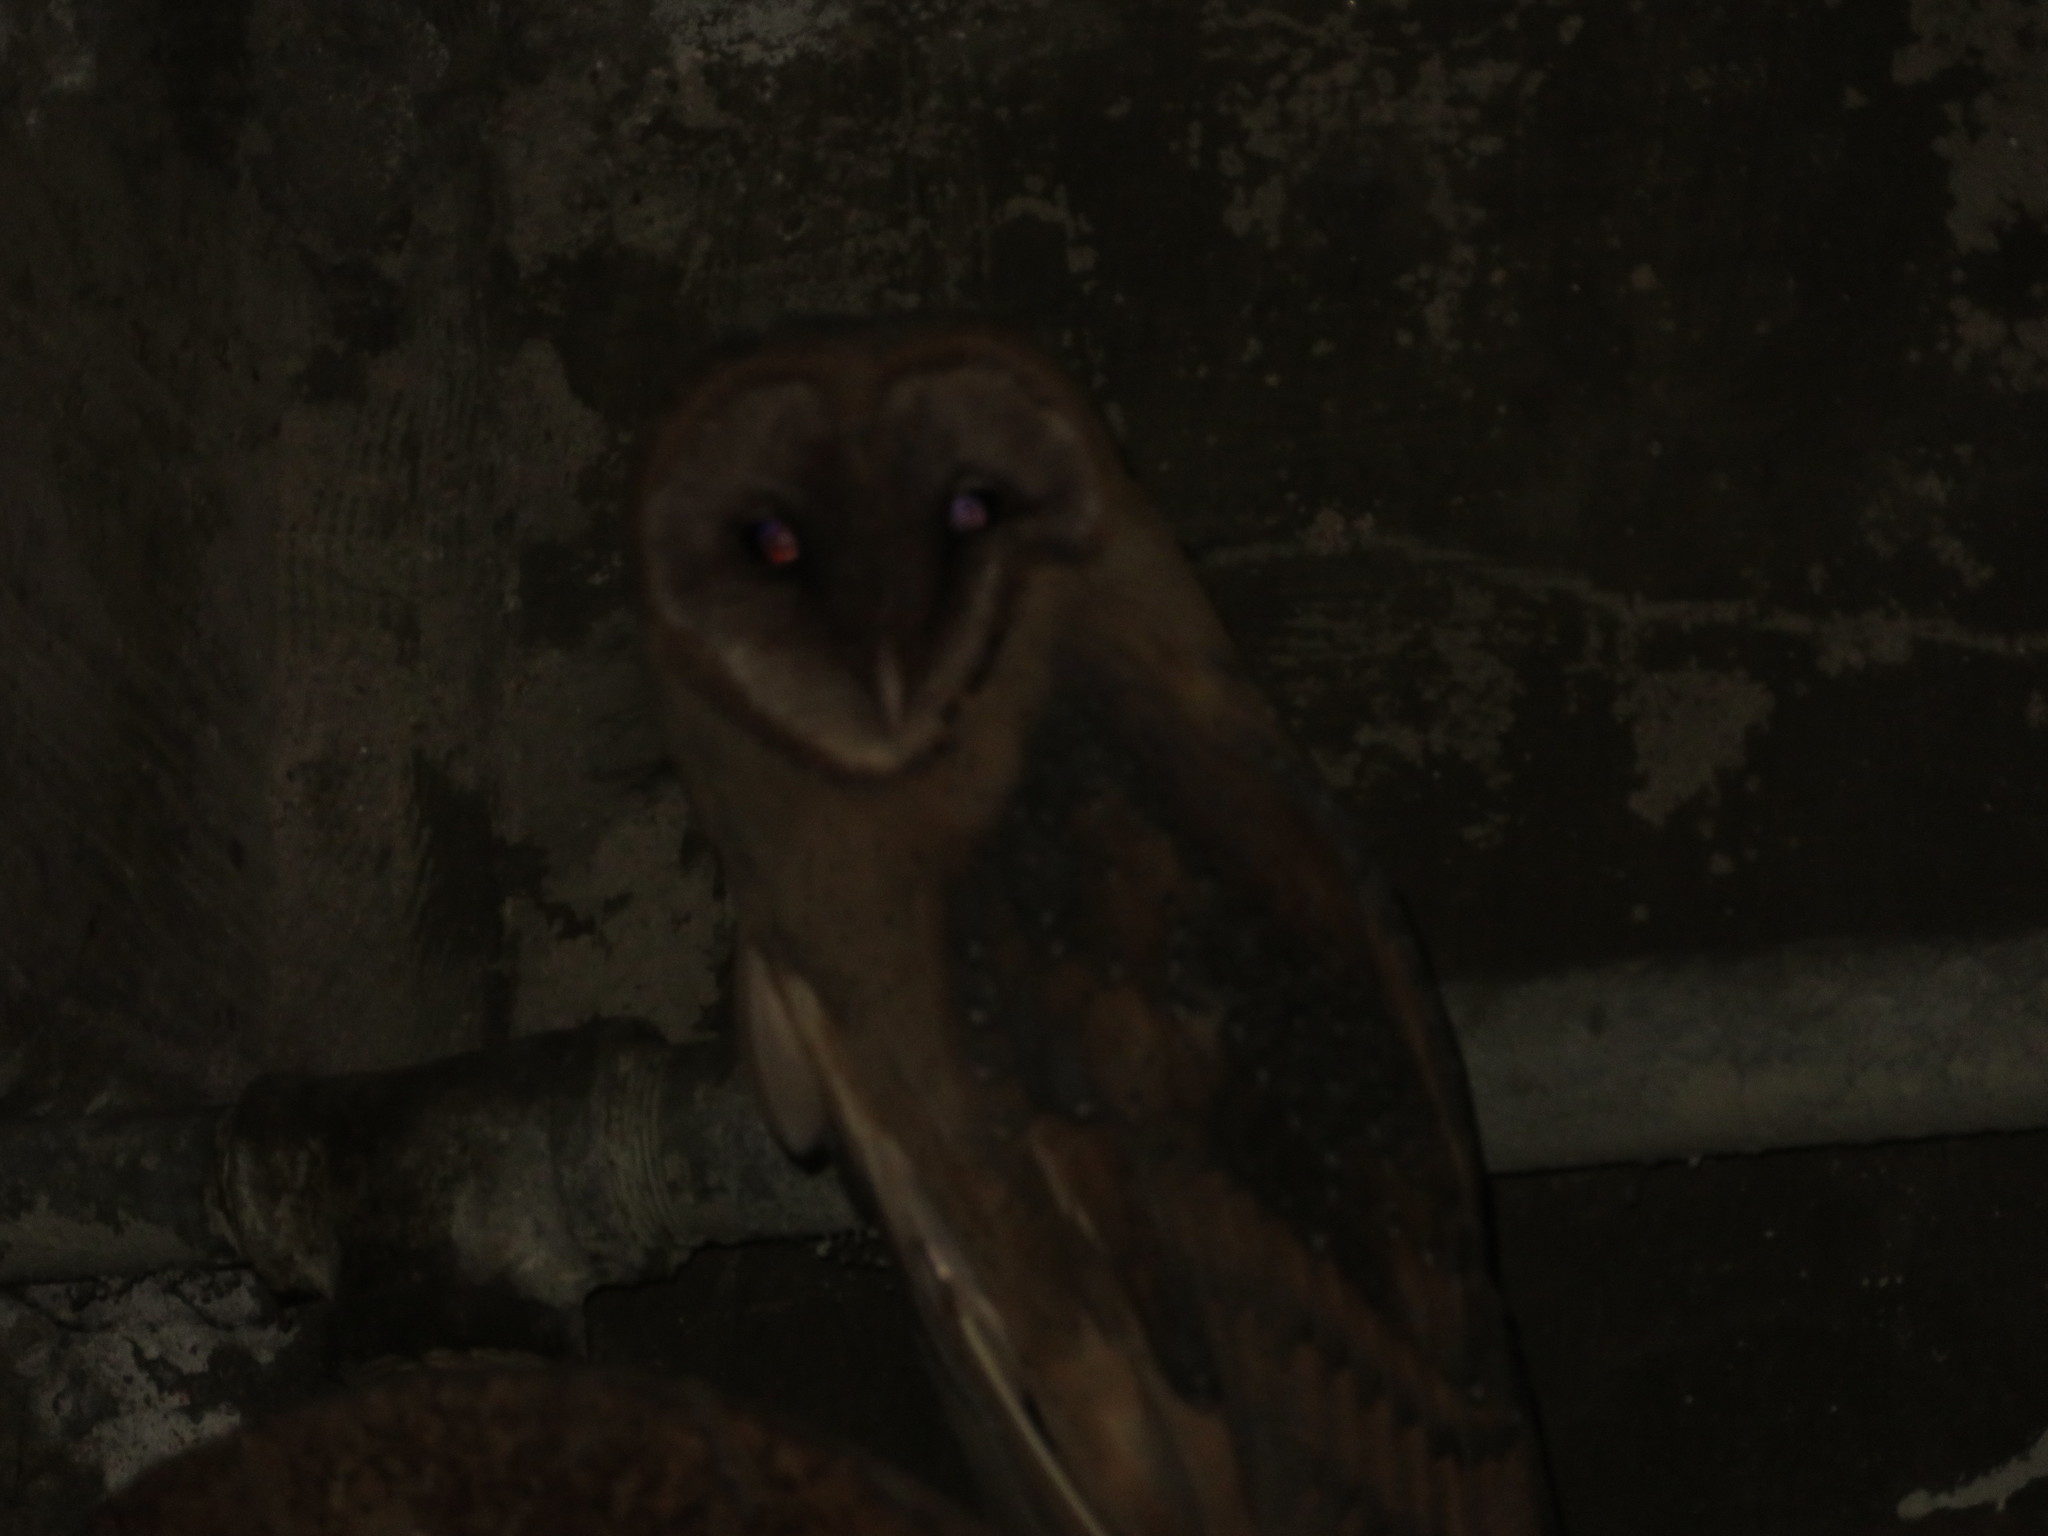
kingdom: Animalia
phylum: Chordata
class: Aves
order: Strigiformes
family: Tytonidae
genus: Tyto
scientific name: Tyto alba
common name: Barn owl
